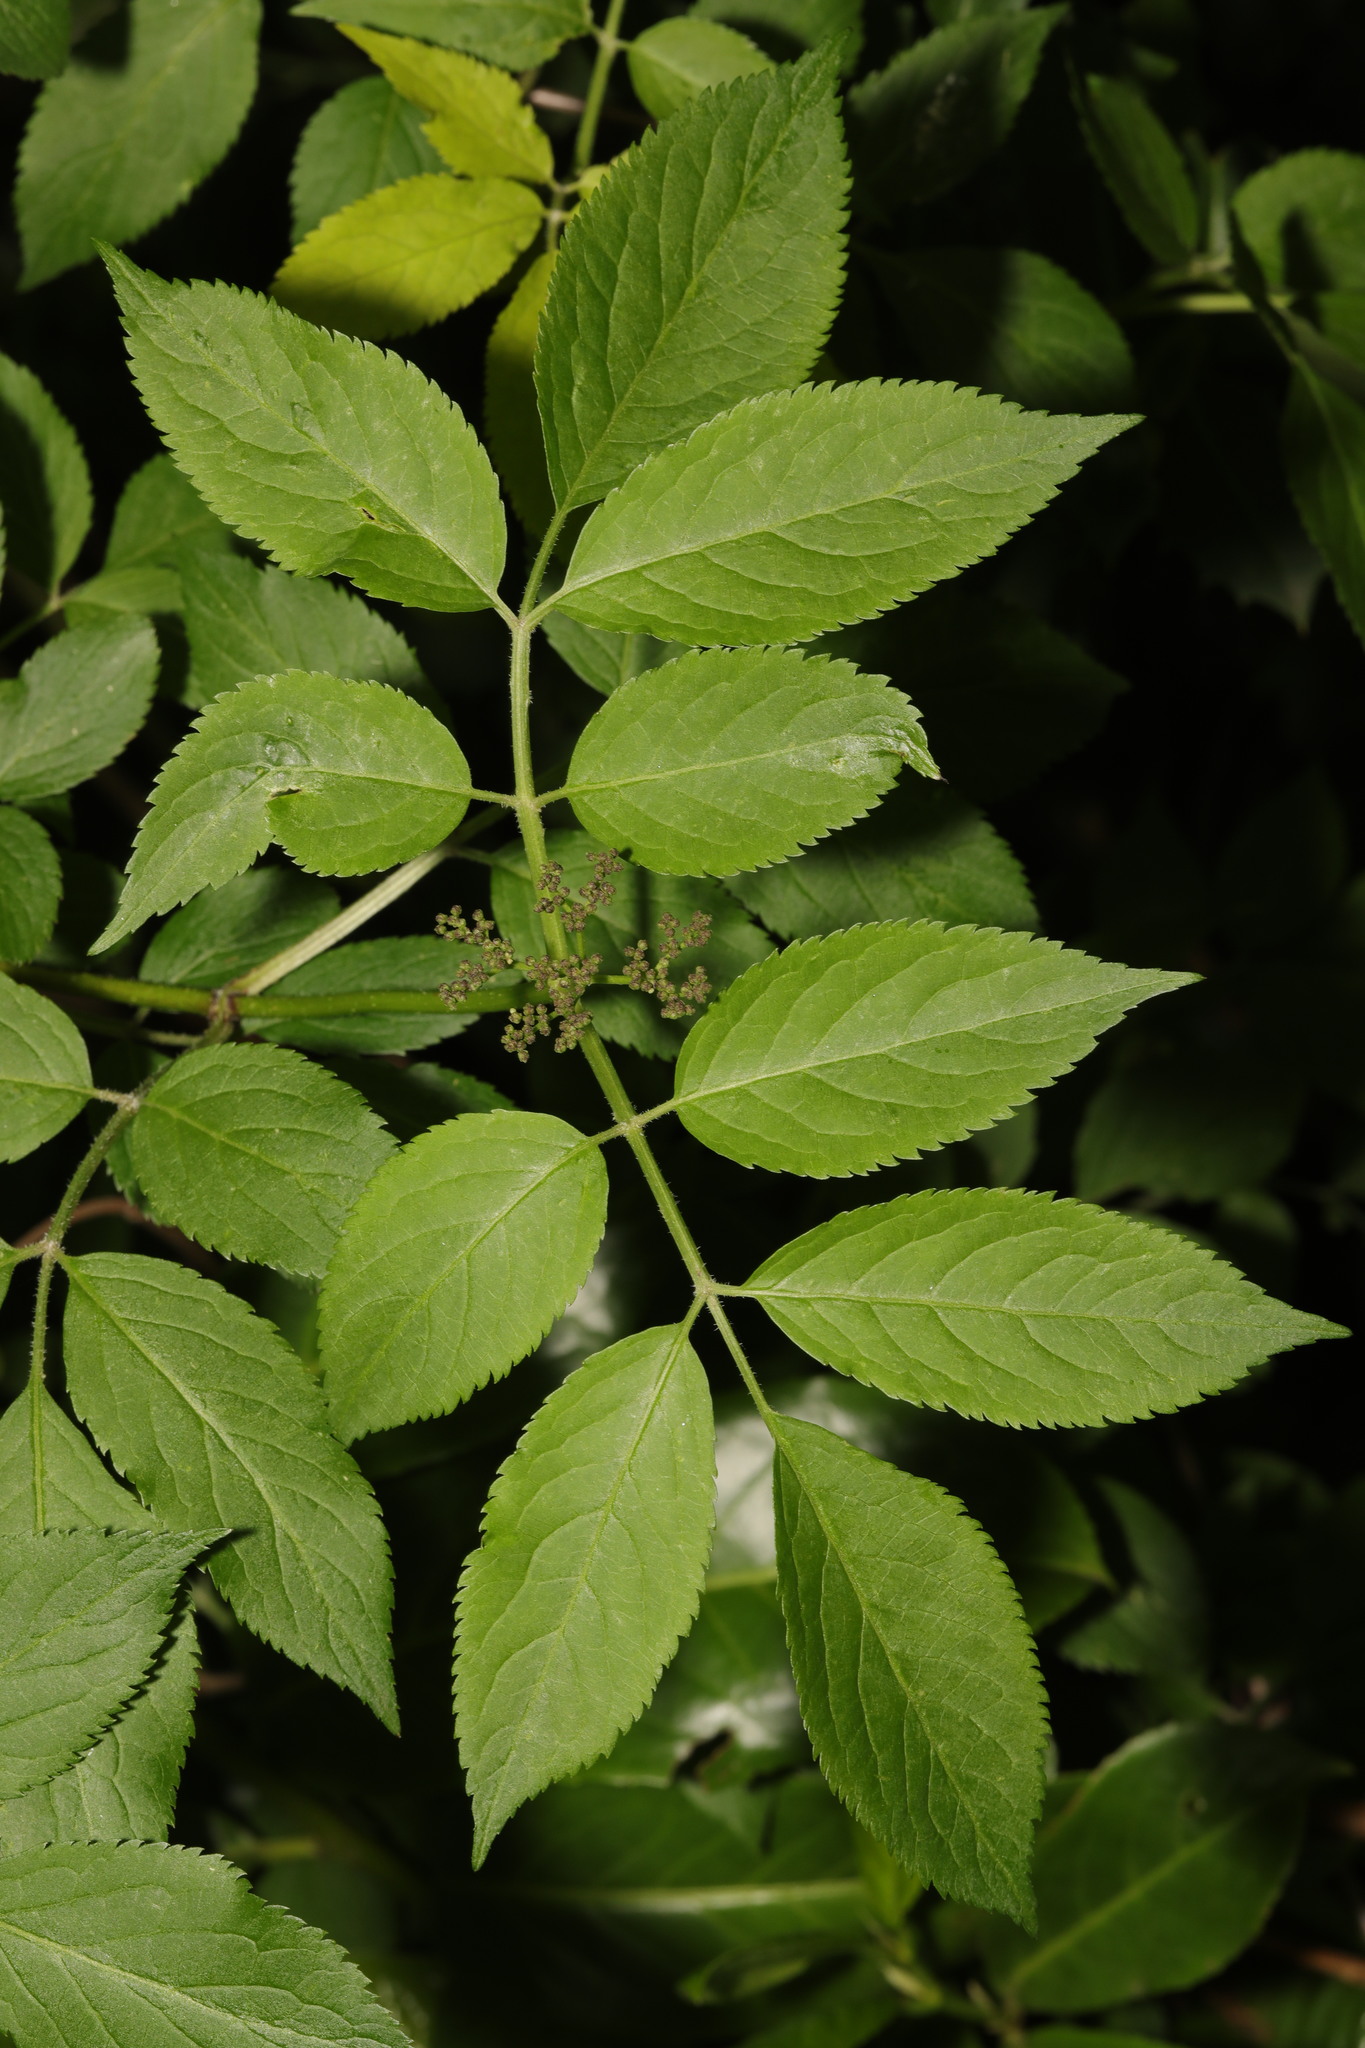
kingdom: Plantae
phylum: Tracheophyta
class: Magnoliopsida
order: Dipsacales
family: Viburnaceae
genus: Sambucus
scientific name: Sambucus nigra
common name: Elder
